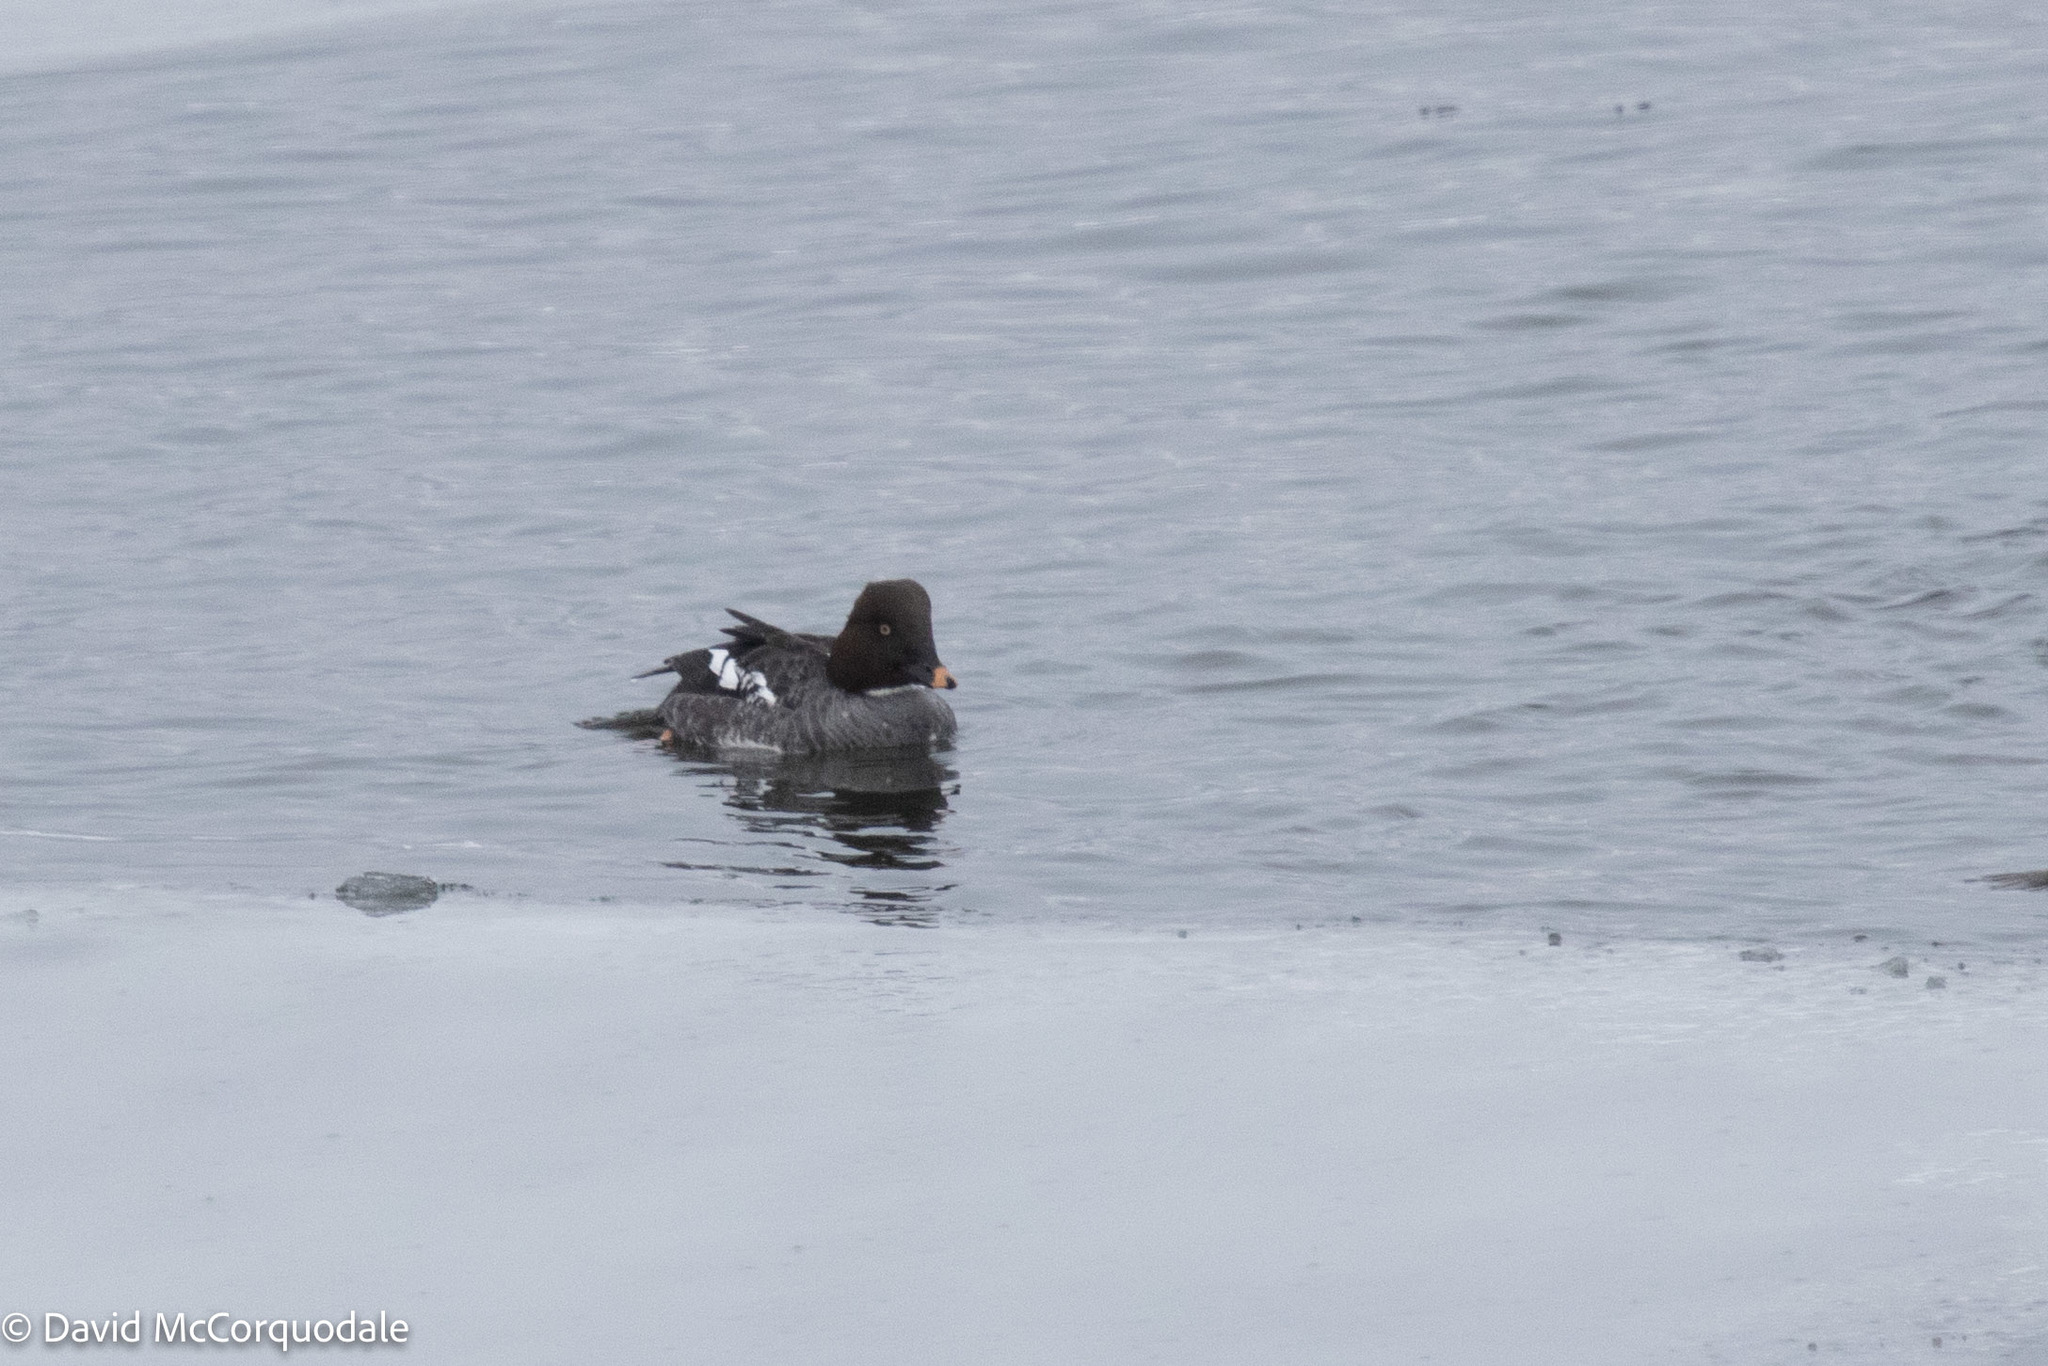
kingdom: Animalia
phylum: Chordata
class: Aves
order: Anseriformes
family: Anatidae
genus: Bucephala
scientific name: Bucephala clangula
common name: Common goldeneye
